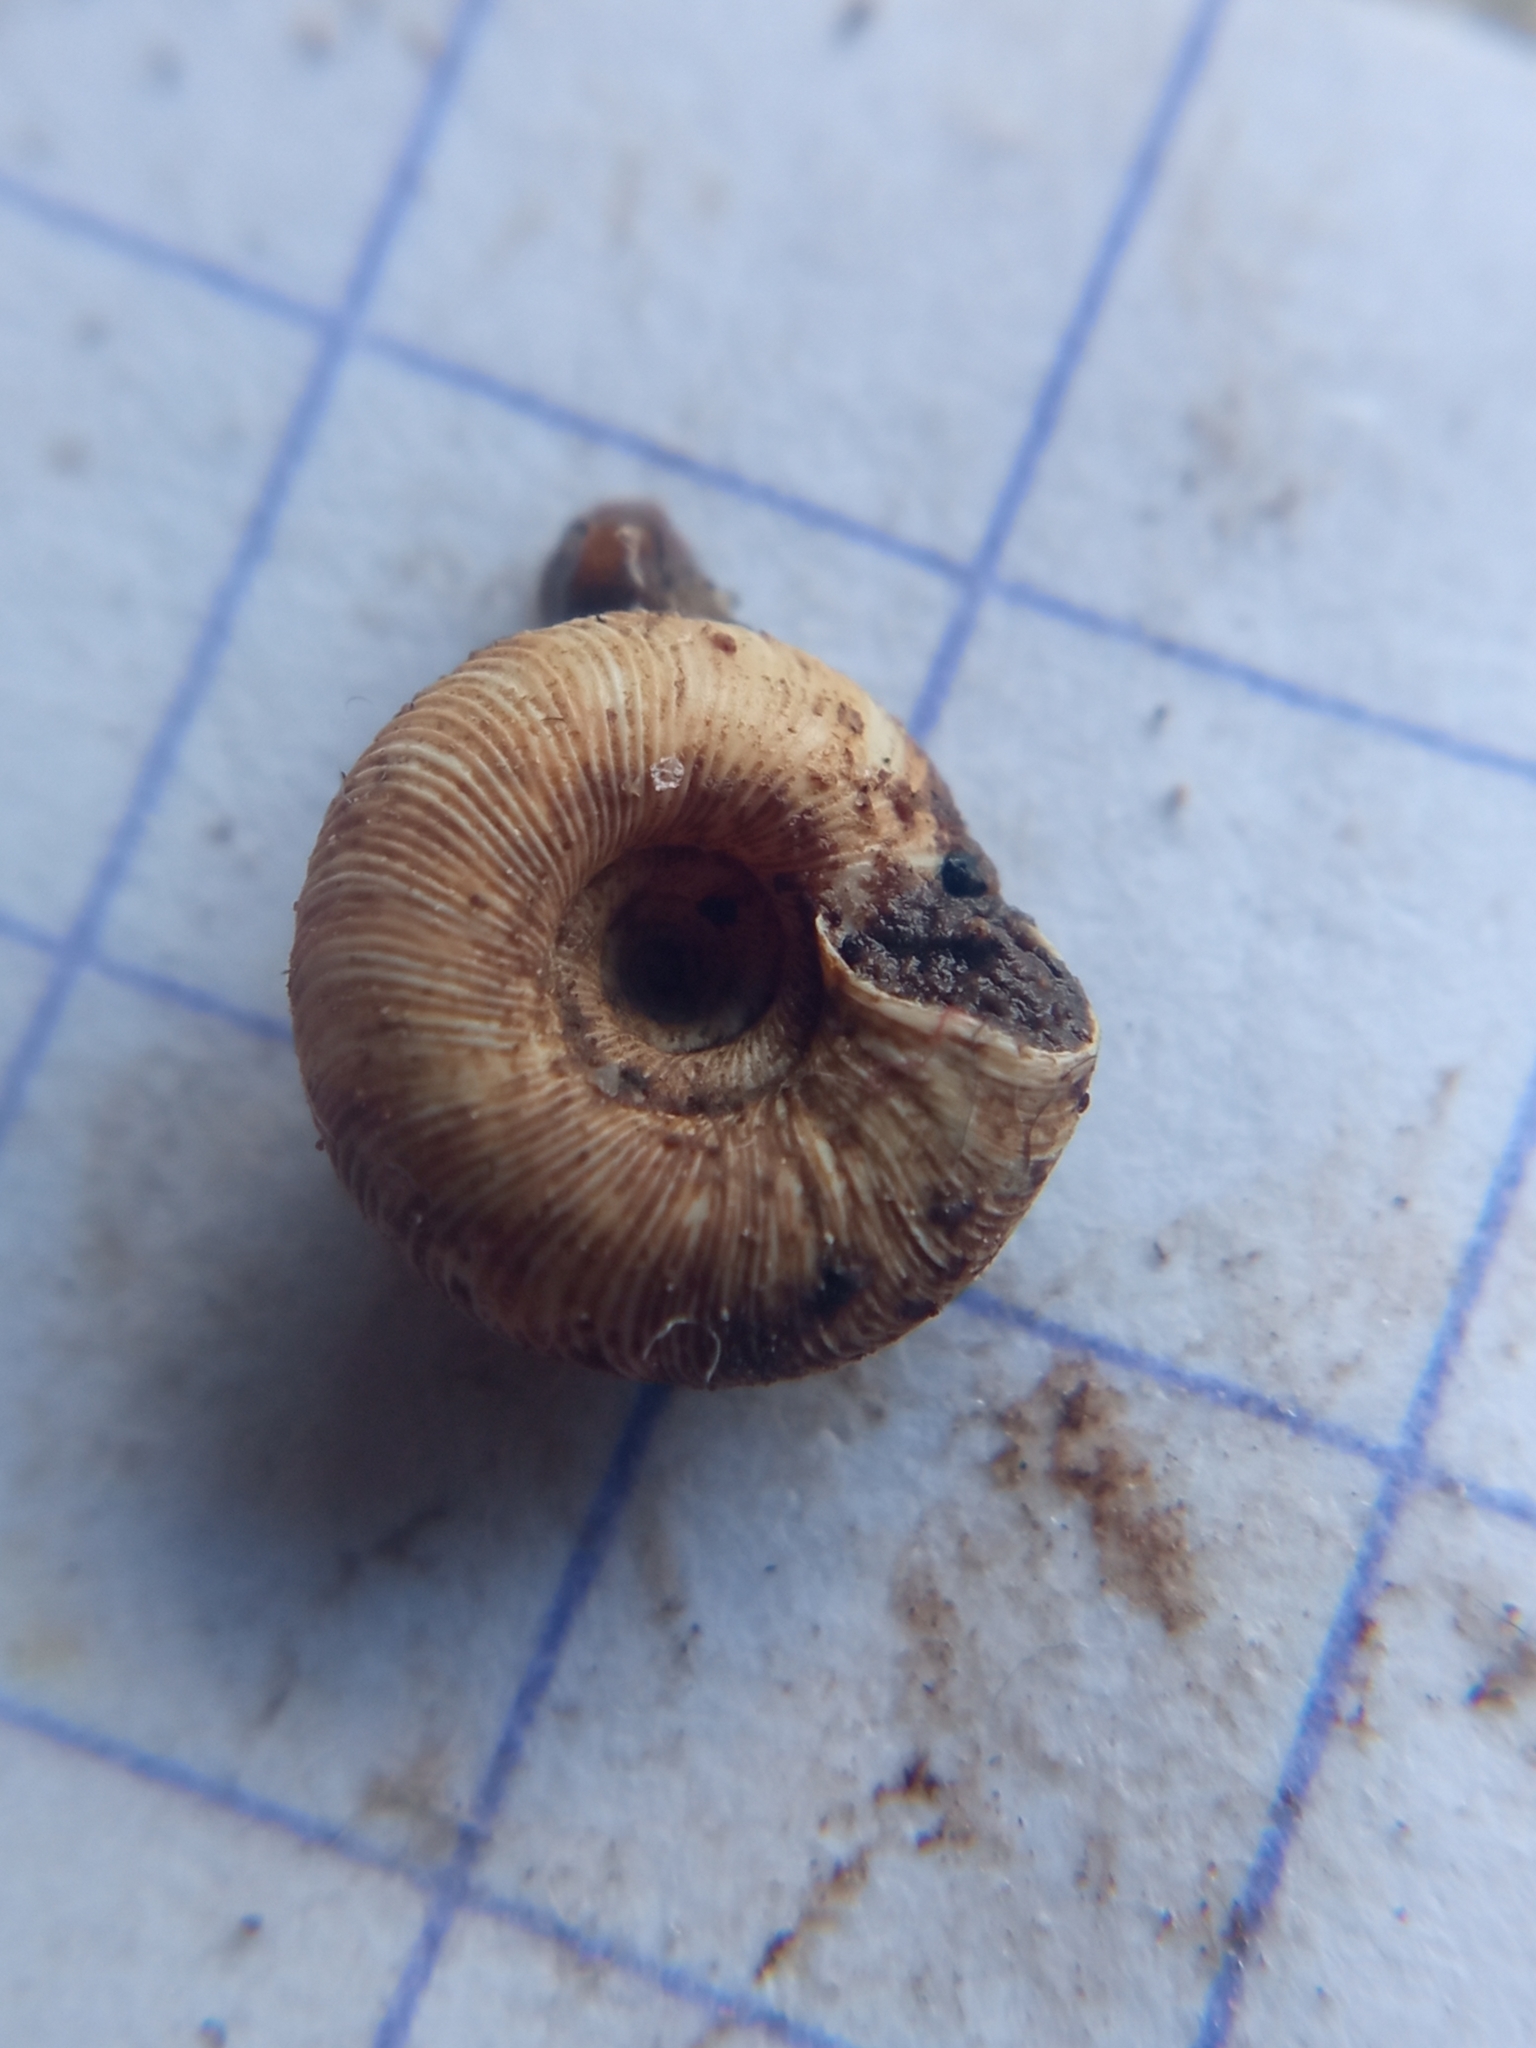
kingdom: Animalia
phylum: Mollusca
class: Gastropoda
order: Stylommatophora
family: Discidae
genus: Discus
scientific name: Discus rotundatus
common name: Rounded snail
